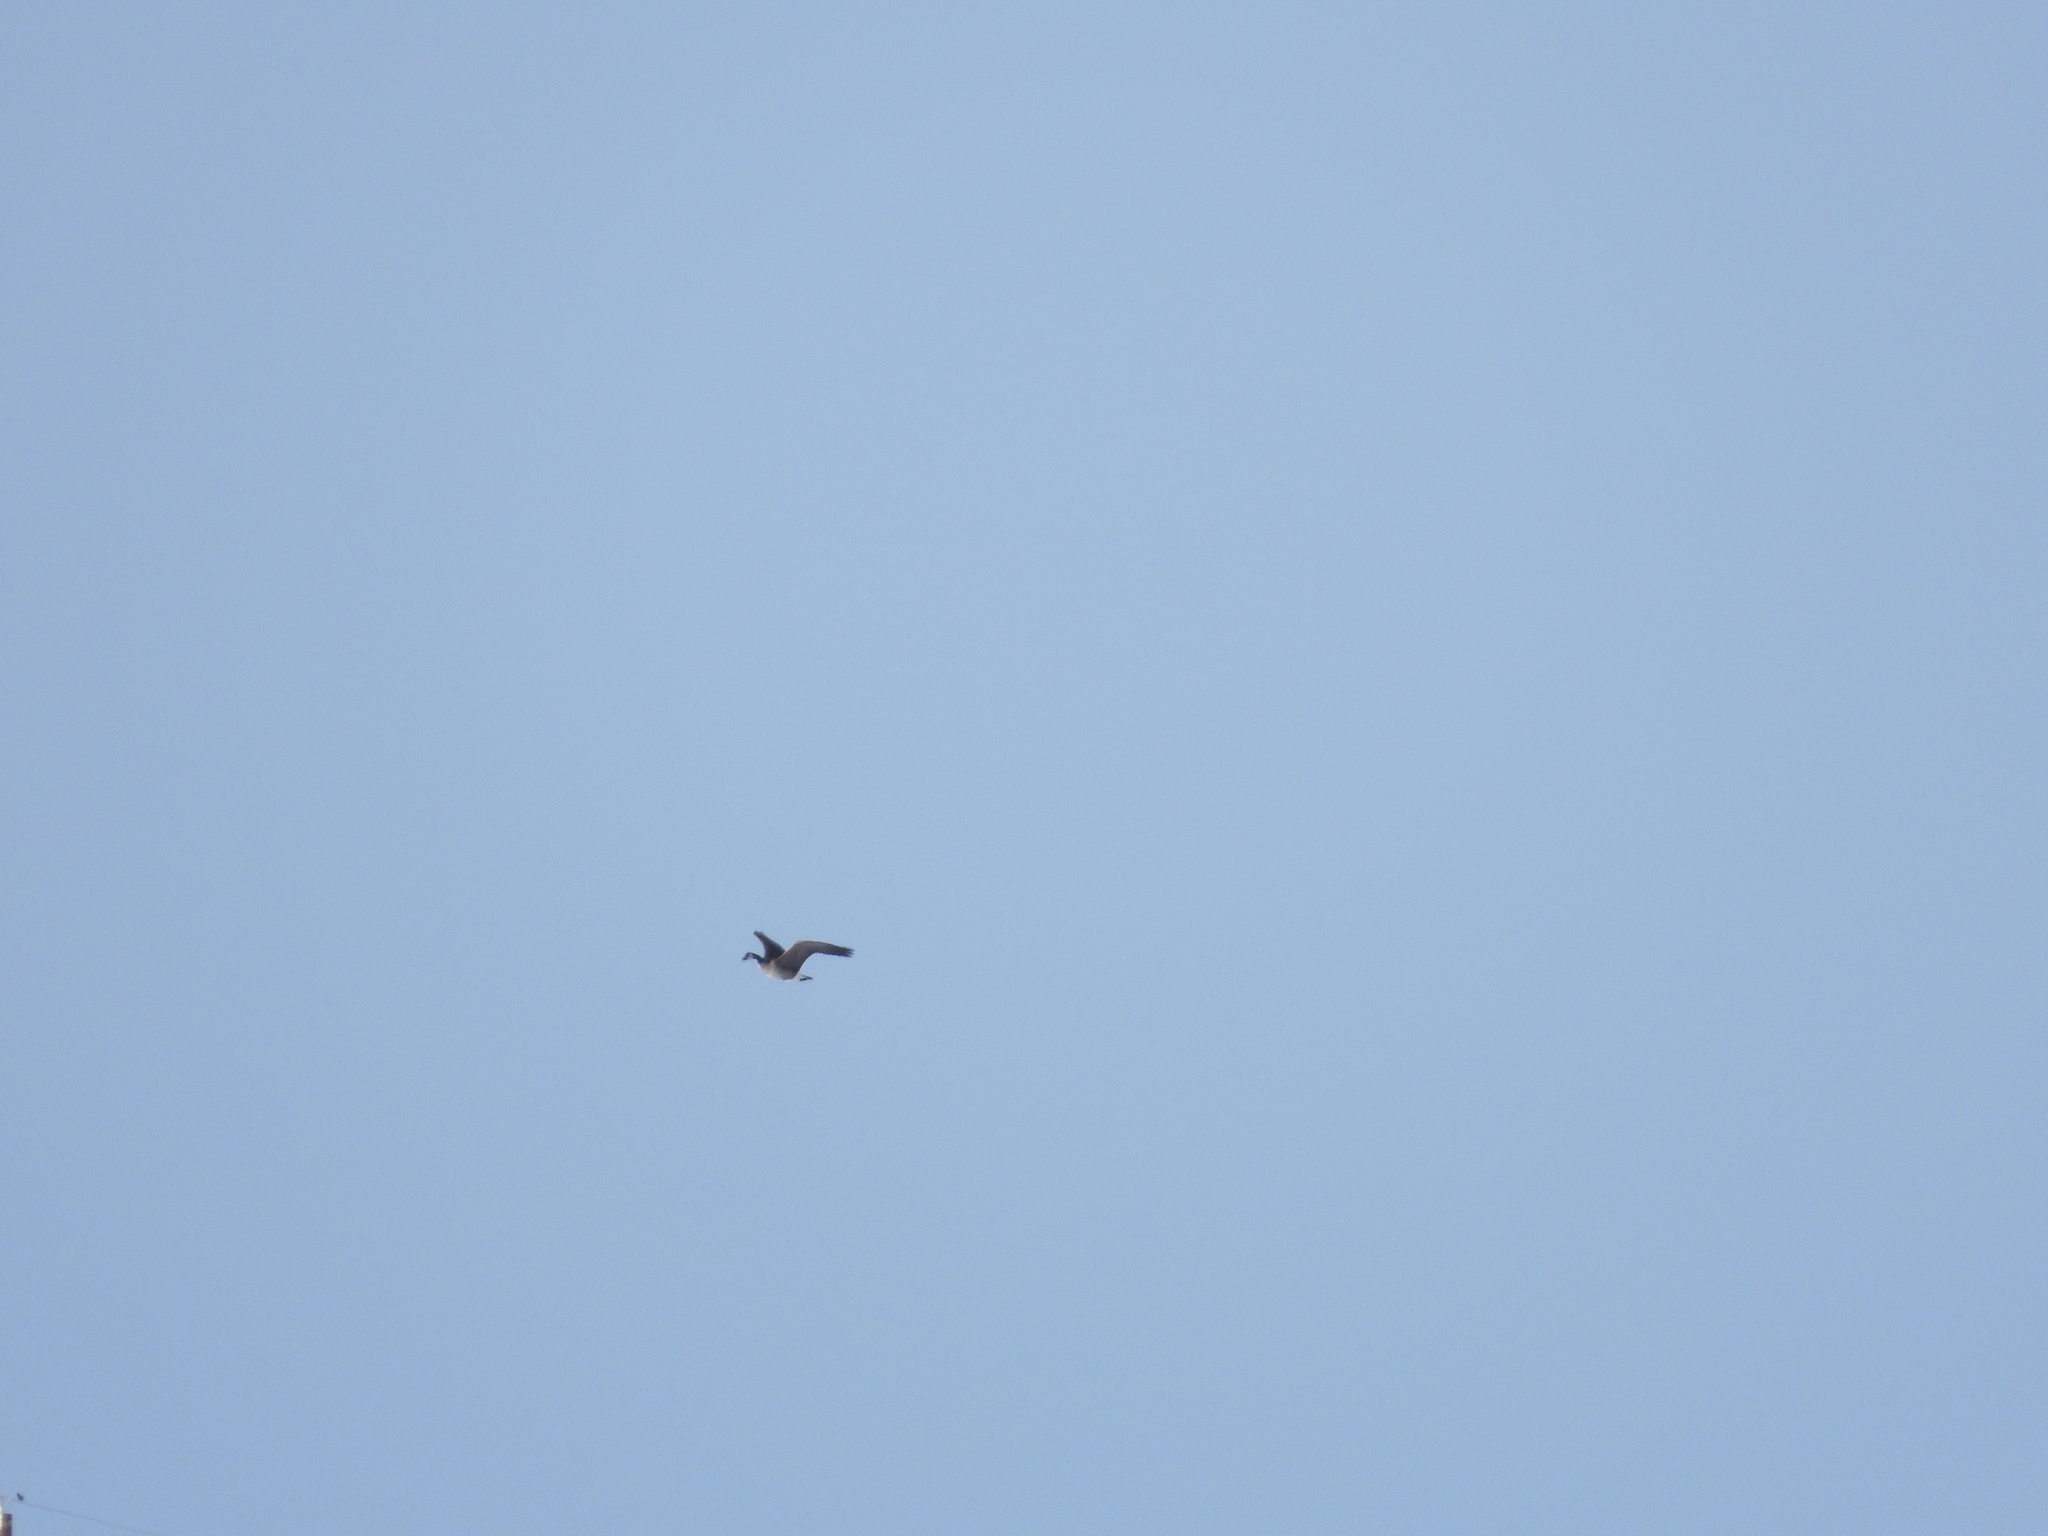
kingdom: Animalia
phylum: Chordata
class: Aves
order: Anseriformes
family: Anatidae
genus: Branta
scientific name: Branta hutchinsii
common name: Cackling goose
